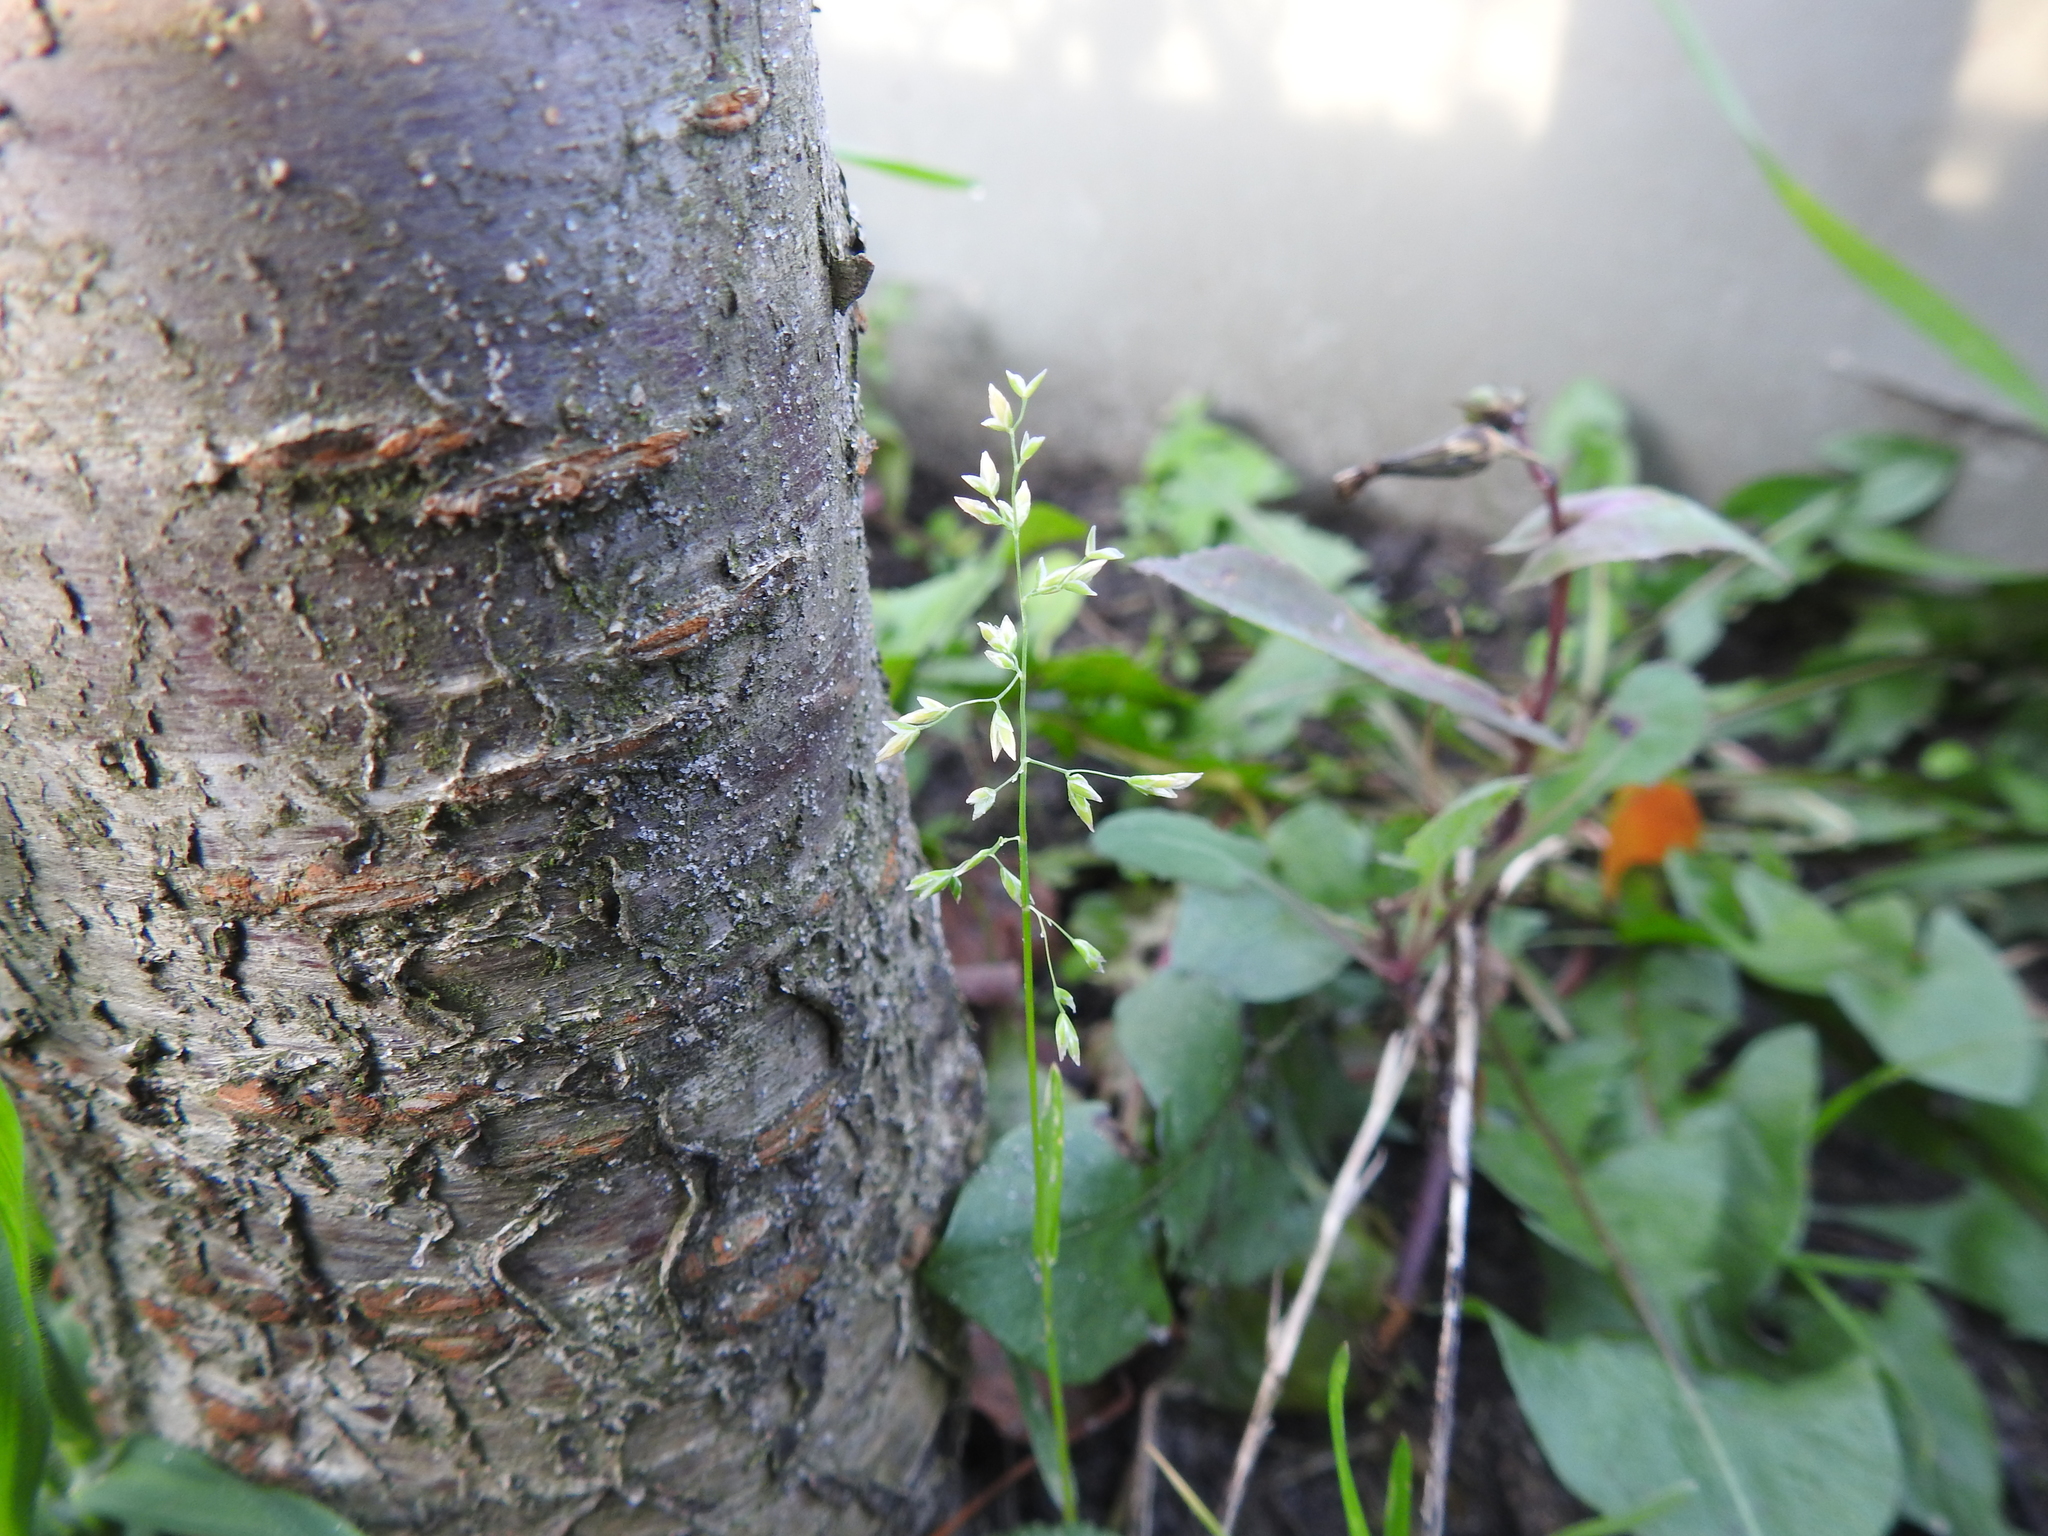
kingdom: Plantae
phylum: Tracheophyta
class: Liliopsida
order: Poales
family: Poaceae
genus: Poa
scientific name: Poa annua
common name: Annual bluegrass
